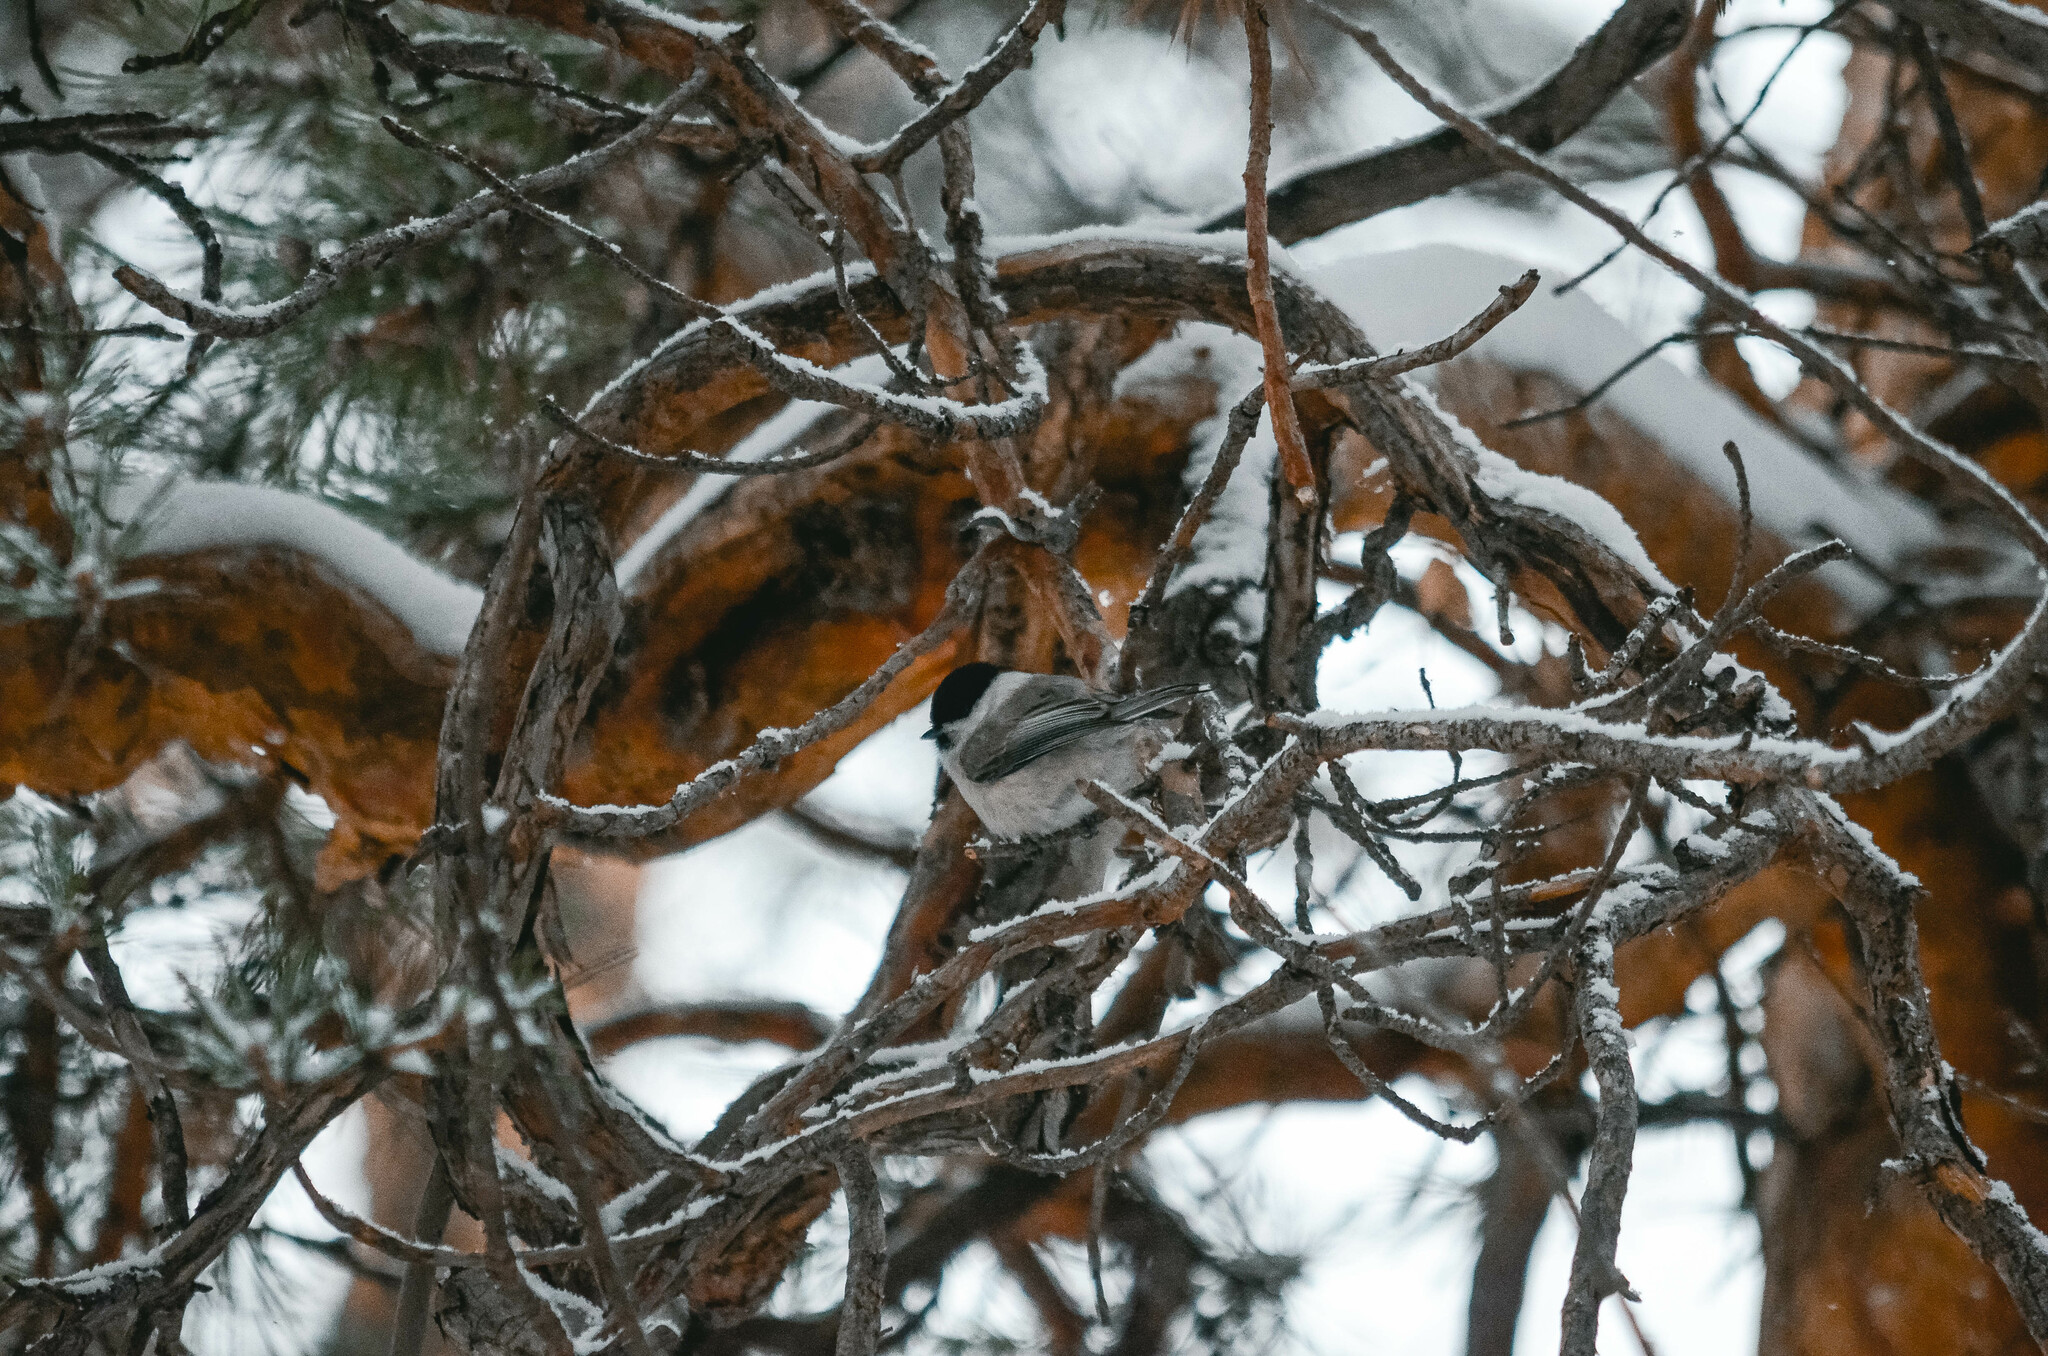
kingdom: Animalia
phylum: Chordata
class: Aves
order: Passeriformes
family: Paridae
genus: Poecile
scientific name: Poecile montanus
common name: Willow tit
